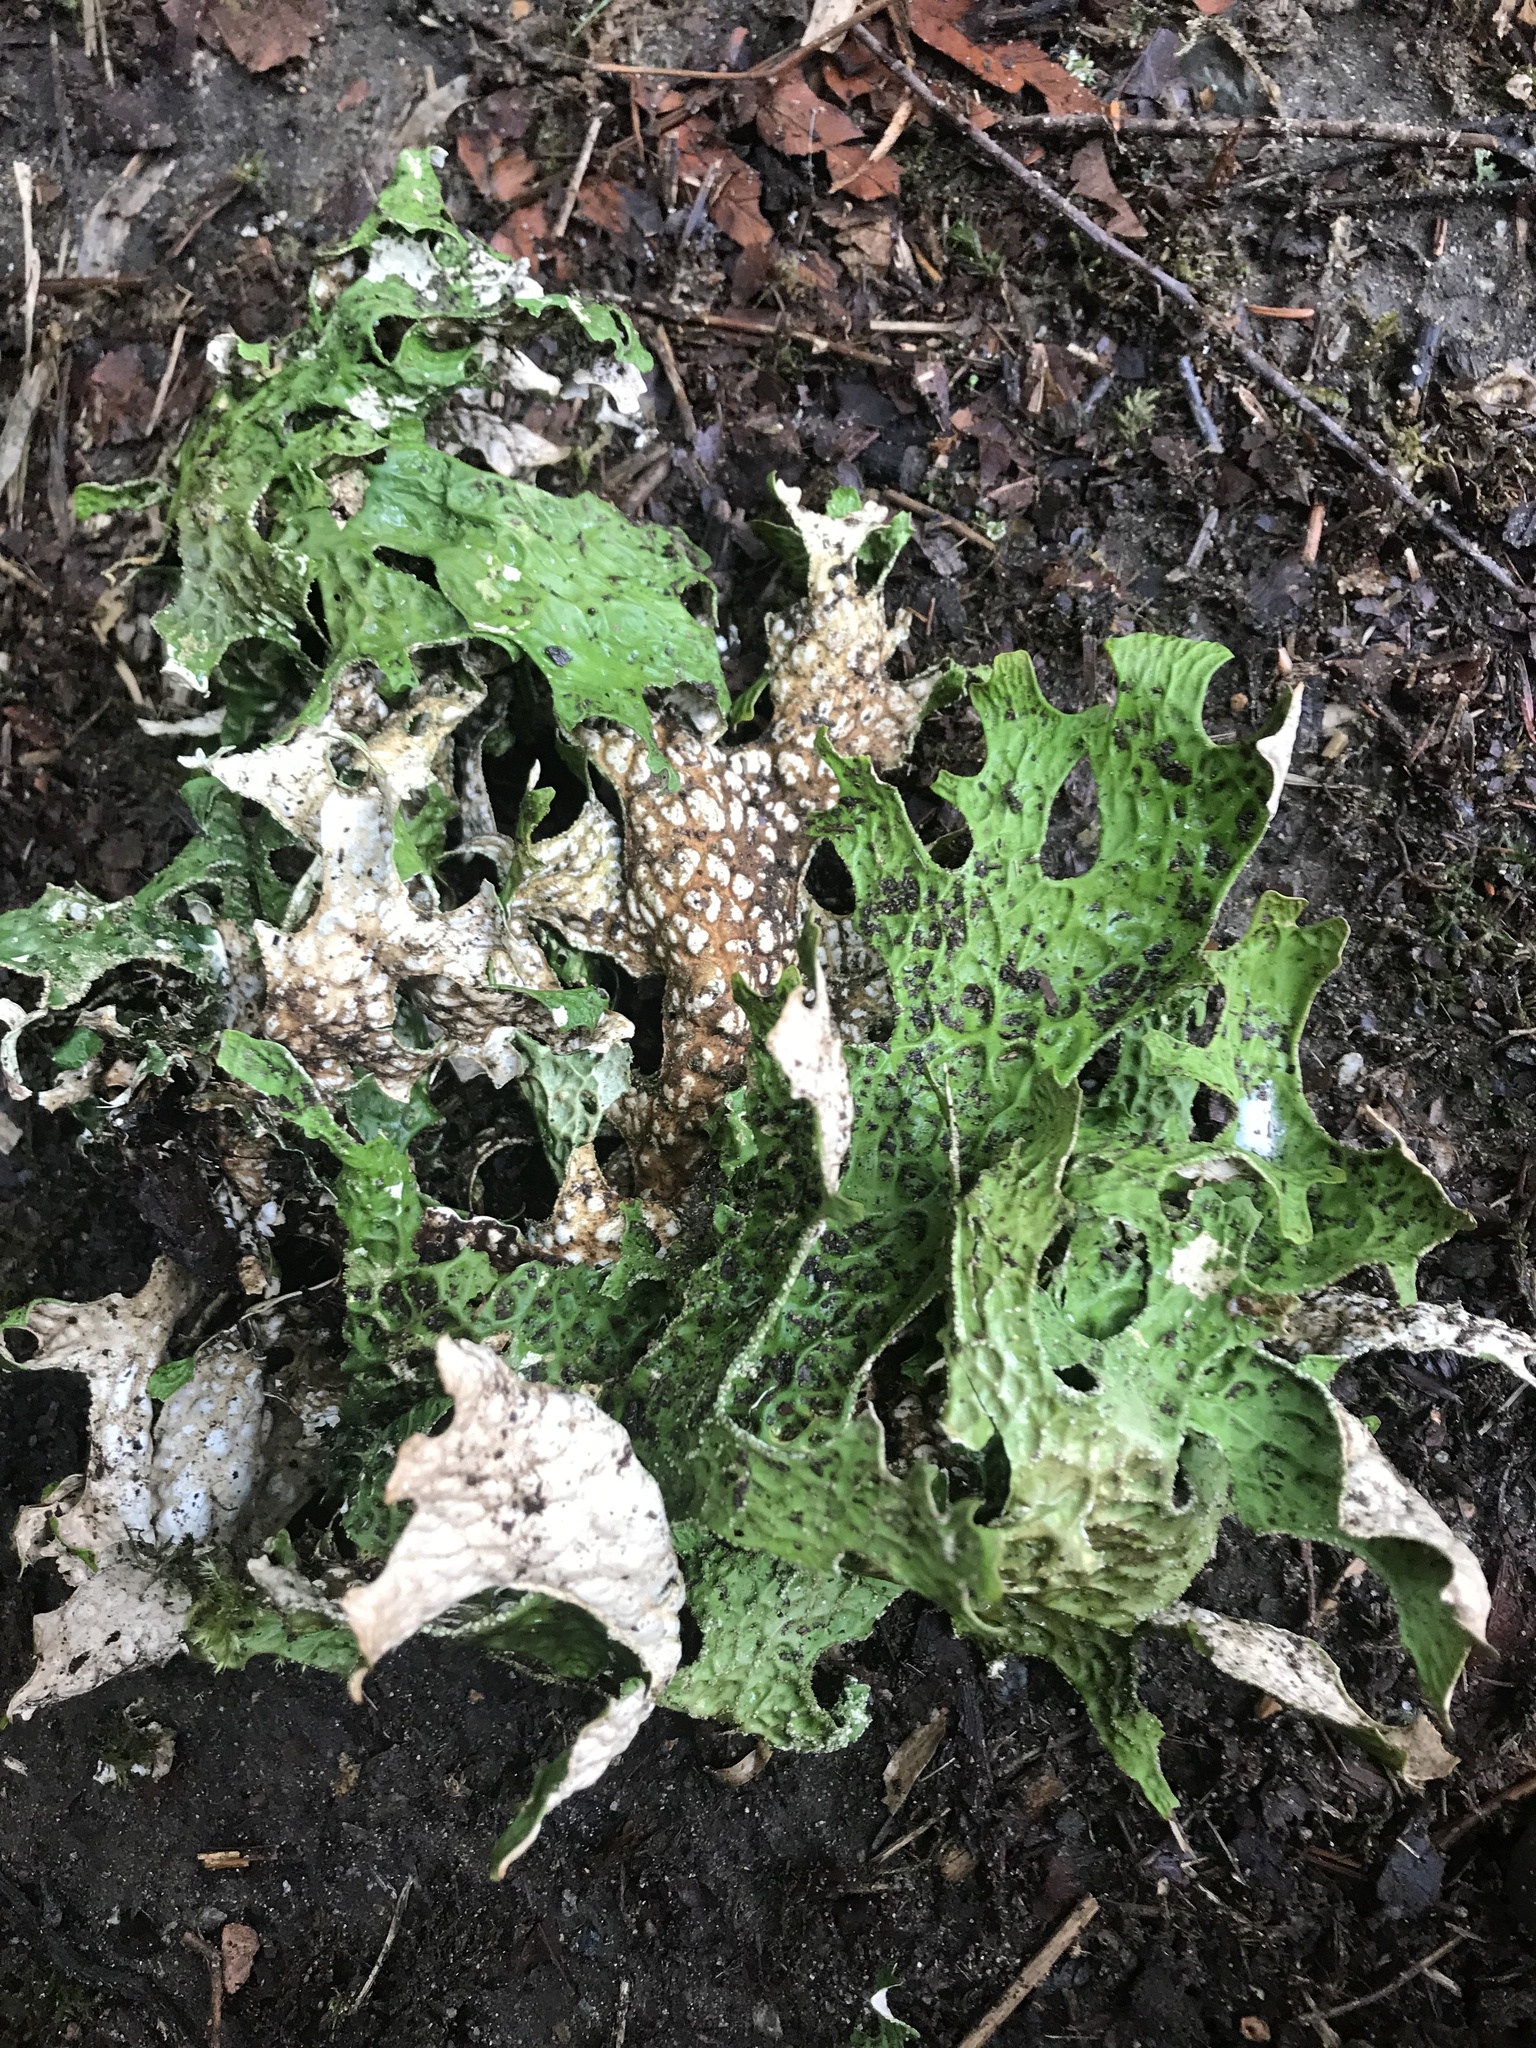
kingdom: Fungi
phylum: Ascomycota
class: Lecanoromycetes
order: Peltigerales
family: Lobariaceae
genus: Lobaria
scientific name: Lobaria pulmonaria
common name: Lungwort
